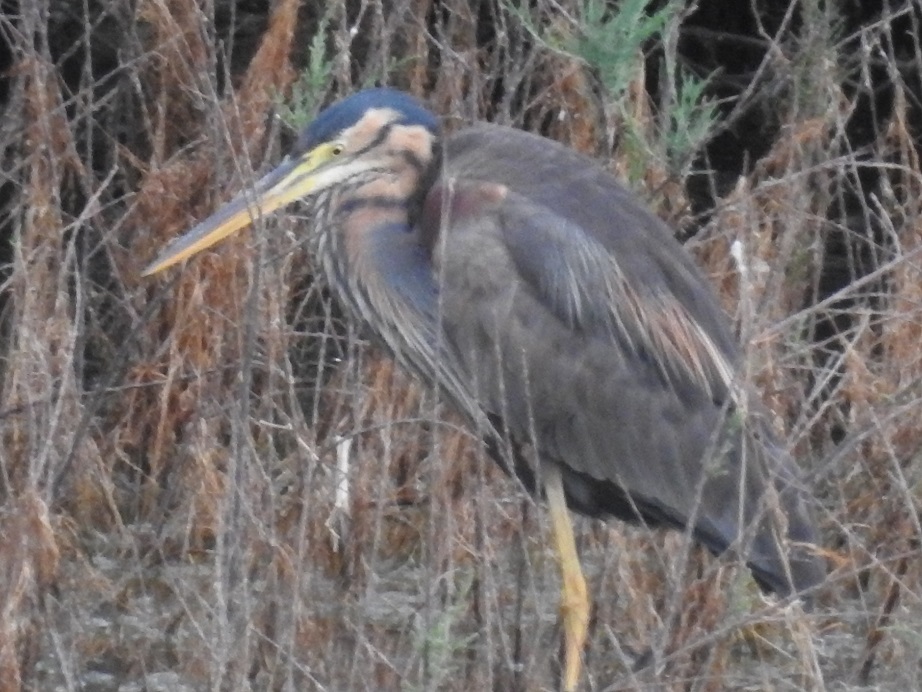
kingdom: Animalia
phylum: Chordata
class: Aves
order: Pelecaniformes
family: Ardeidae
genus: Ardea
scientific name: Ardea purpurea
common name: Purple heron
